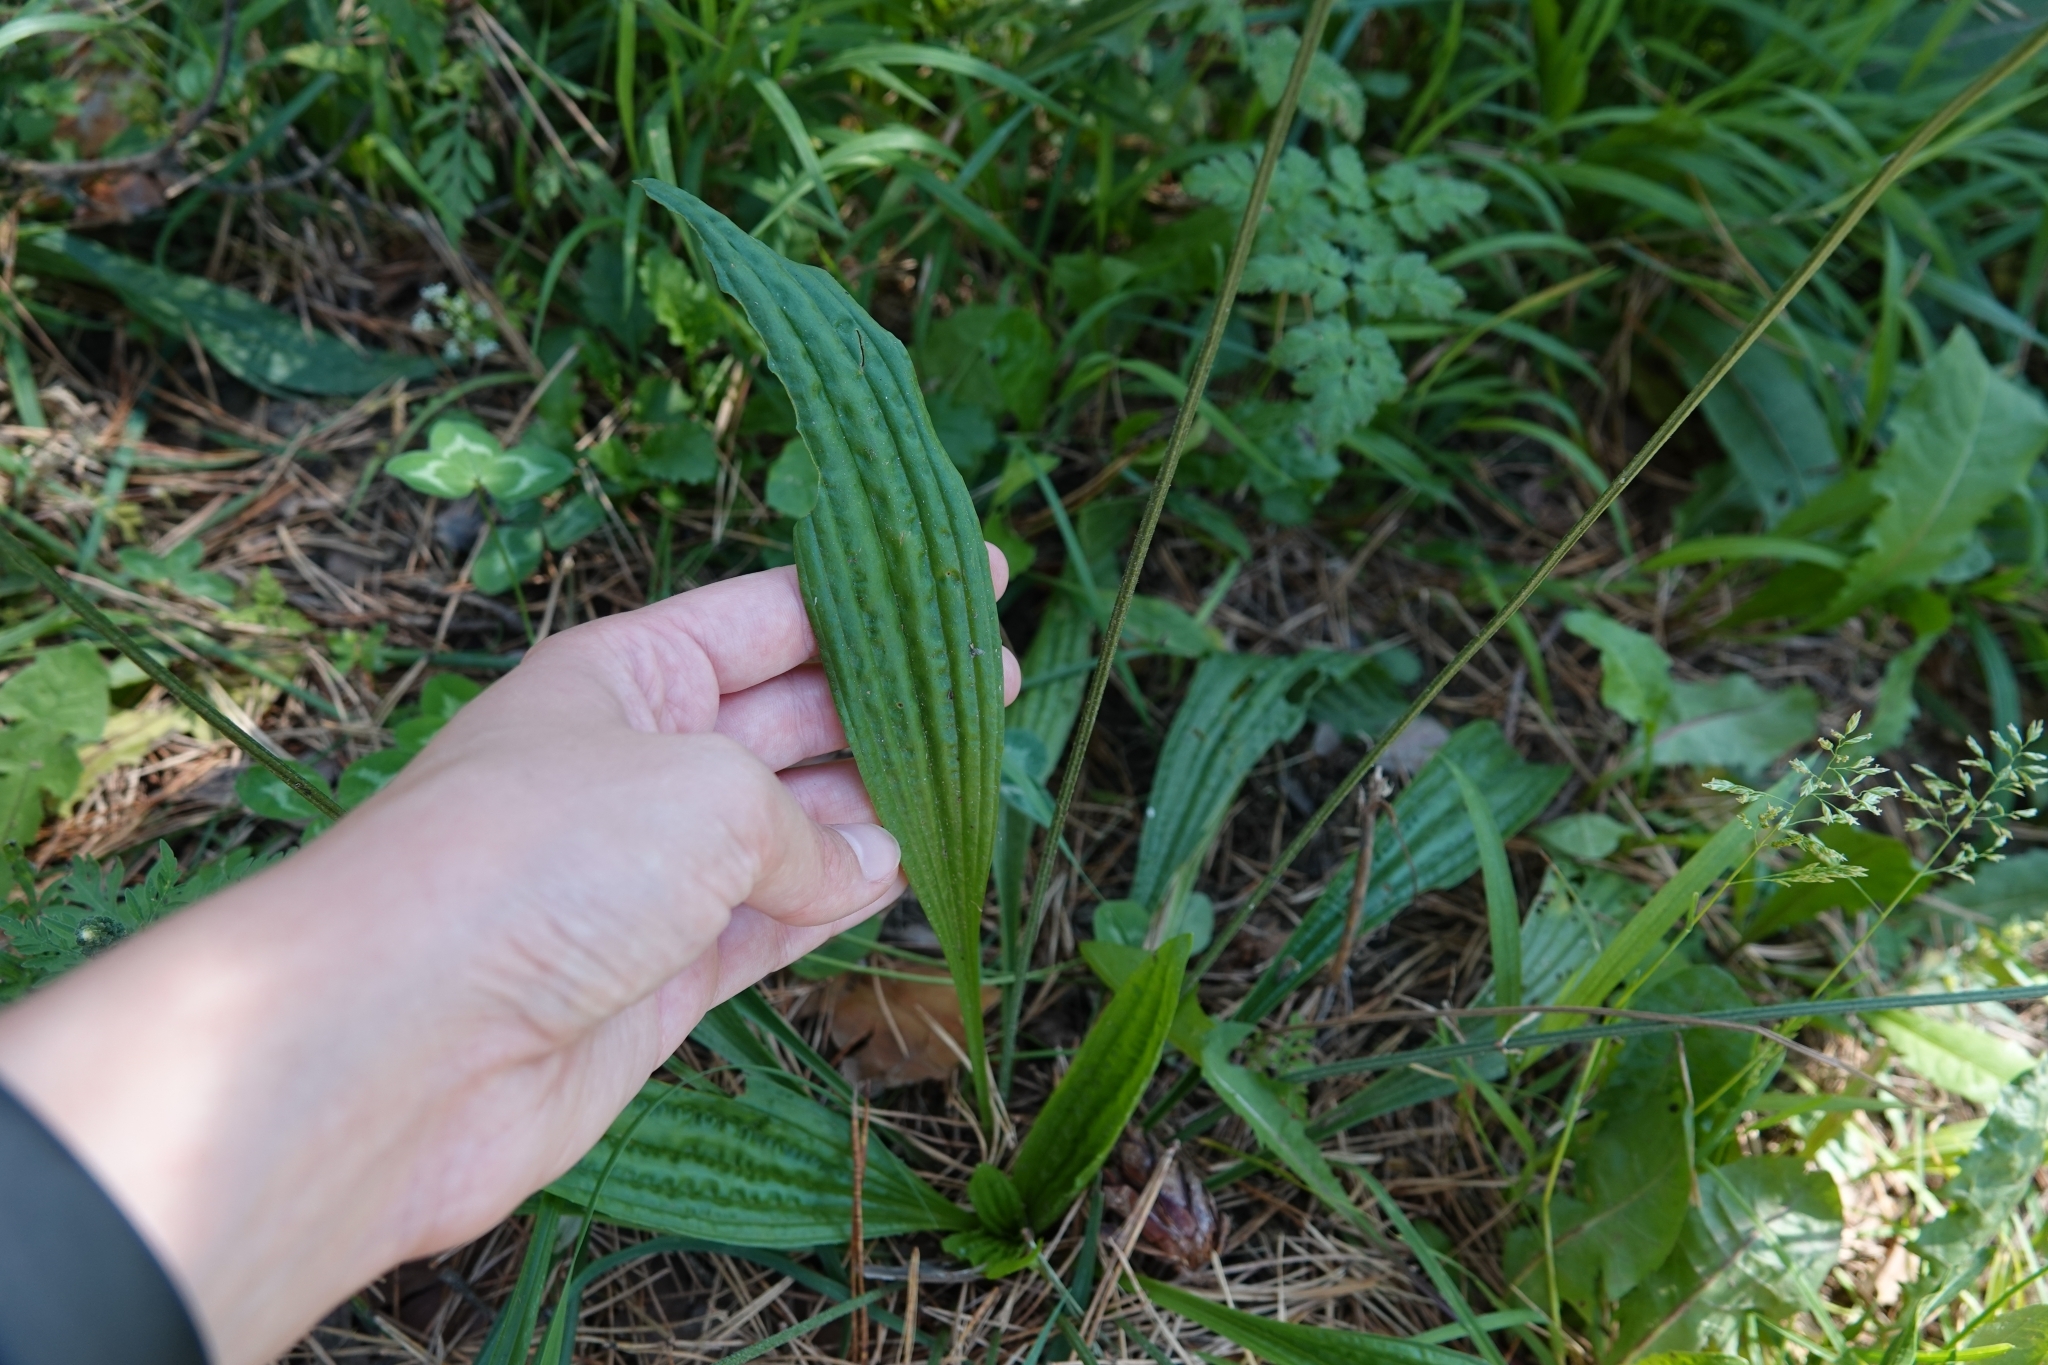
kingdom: Plantae
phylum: Tracheophyta
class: Magnoliopsida
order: Lamiales
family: Plantaginaceae
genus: Plantago
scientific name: Plantago lanceolata
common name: Ribwort plantain
